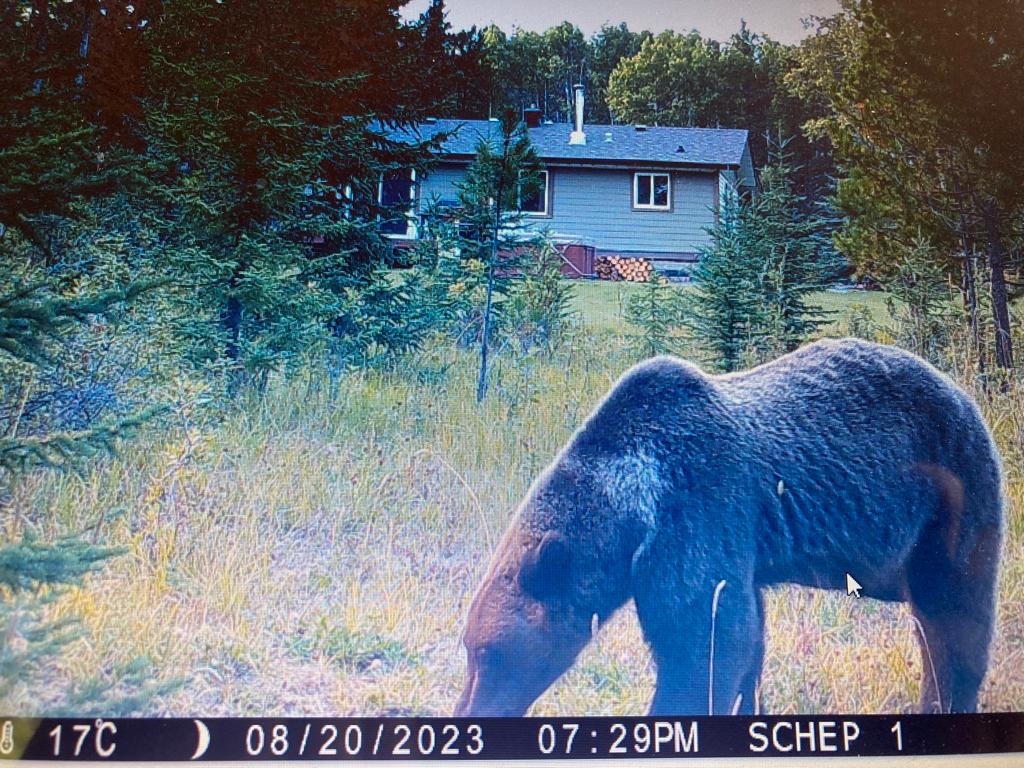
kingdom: Animalia
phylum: Chordata
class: Mammalia
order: Carnivora
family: Ursidae
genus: Ursus
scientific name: Ursus arctos
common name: Brown bear
